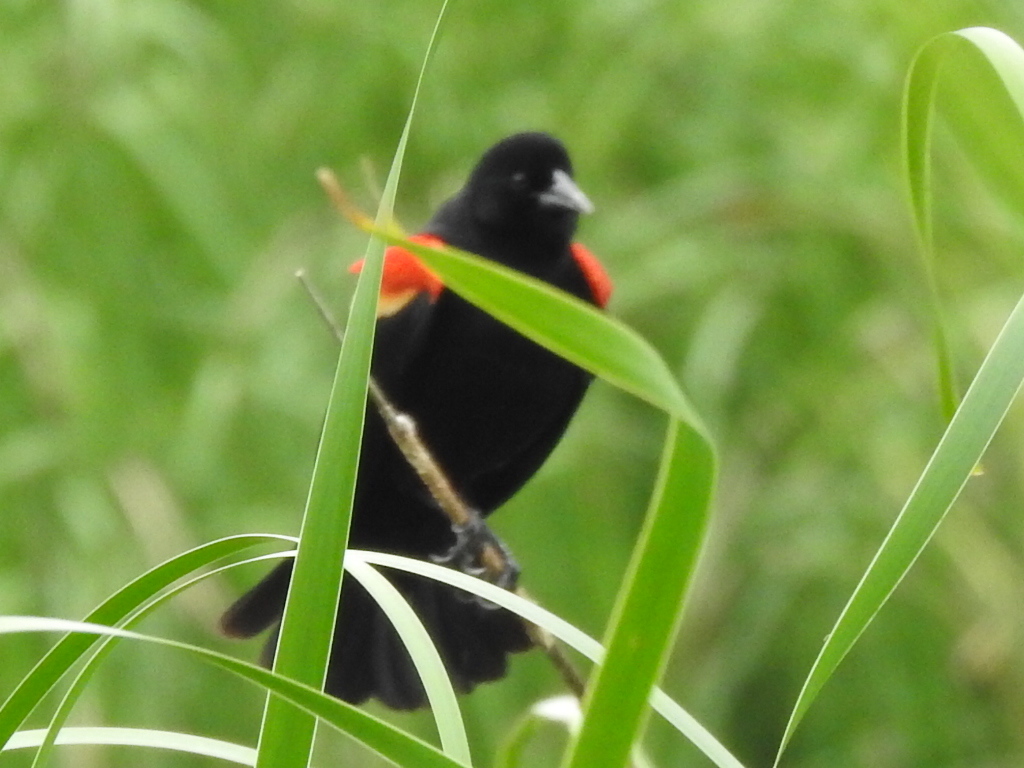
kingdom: Animalia
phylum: Chordata
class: Aves
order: Passeriformes
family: Icteridae
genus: Agelaius
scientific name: Agelaius phoeniceus
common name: Red-winged blackbird
